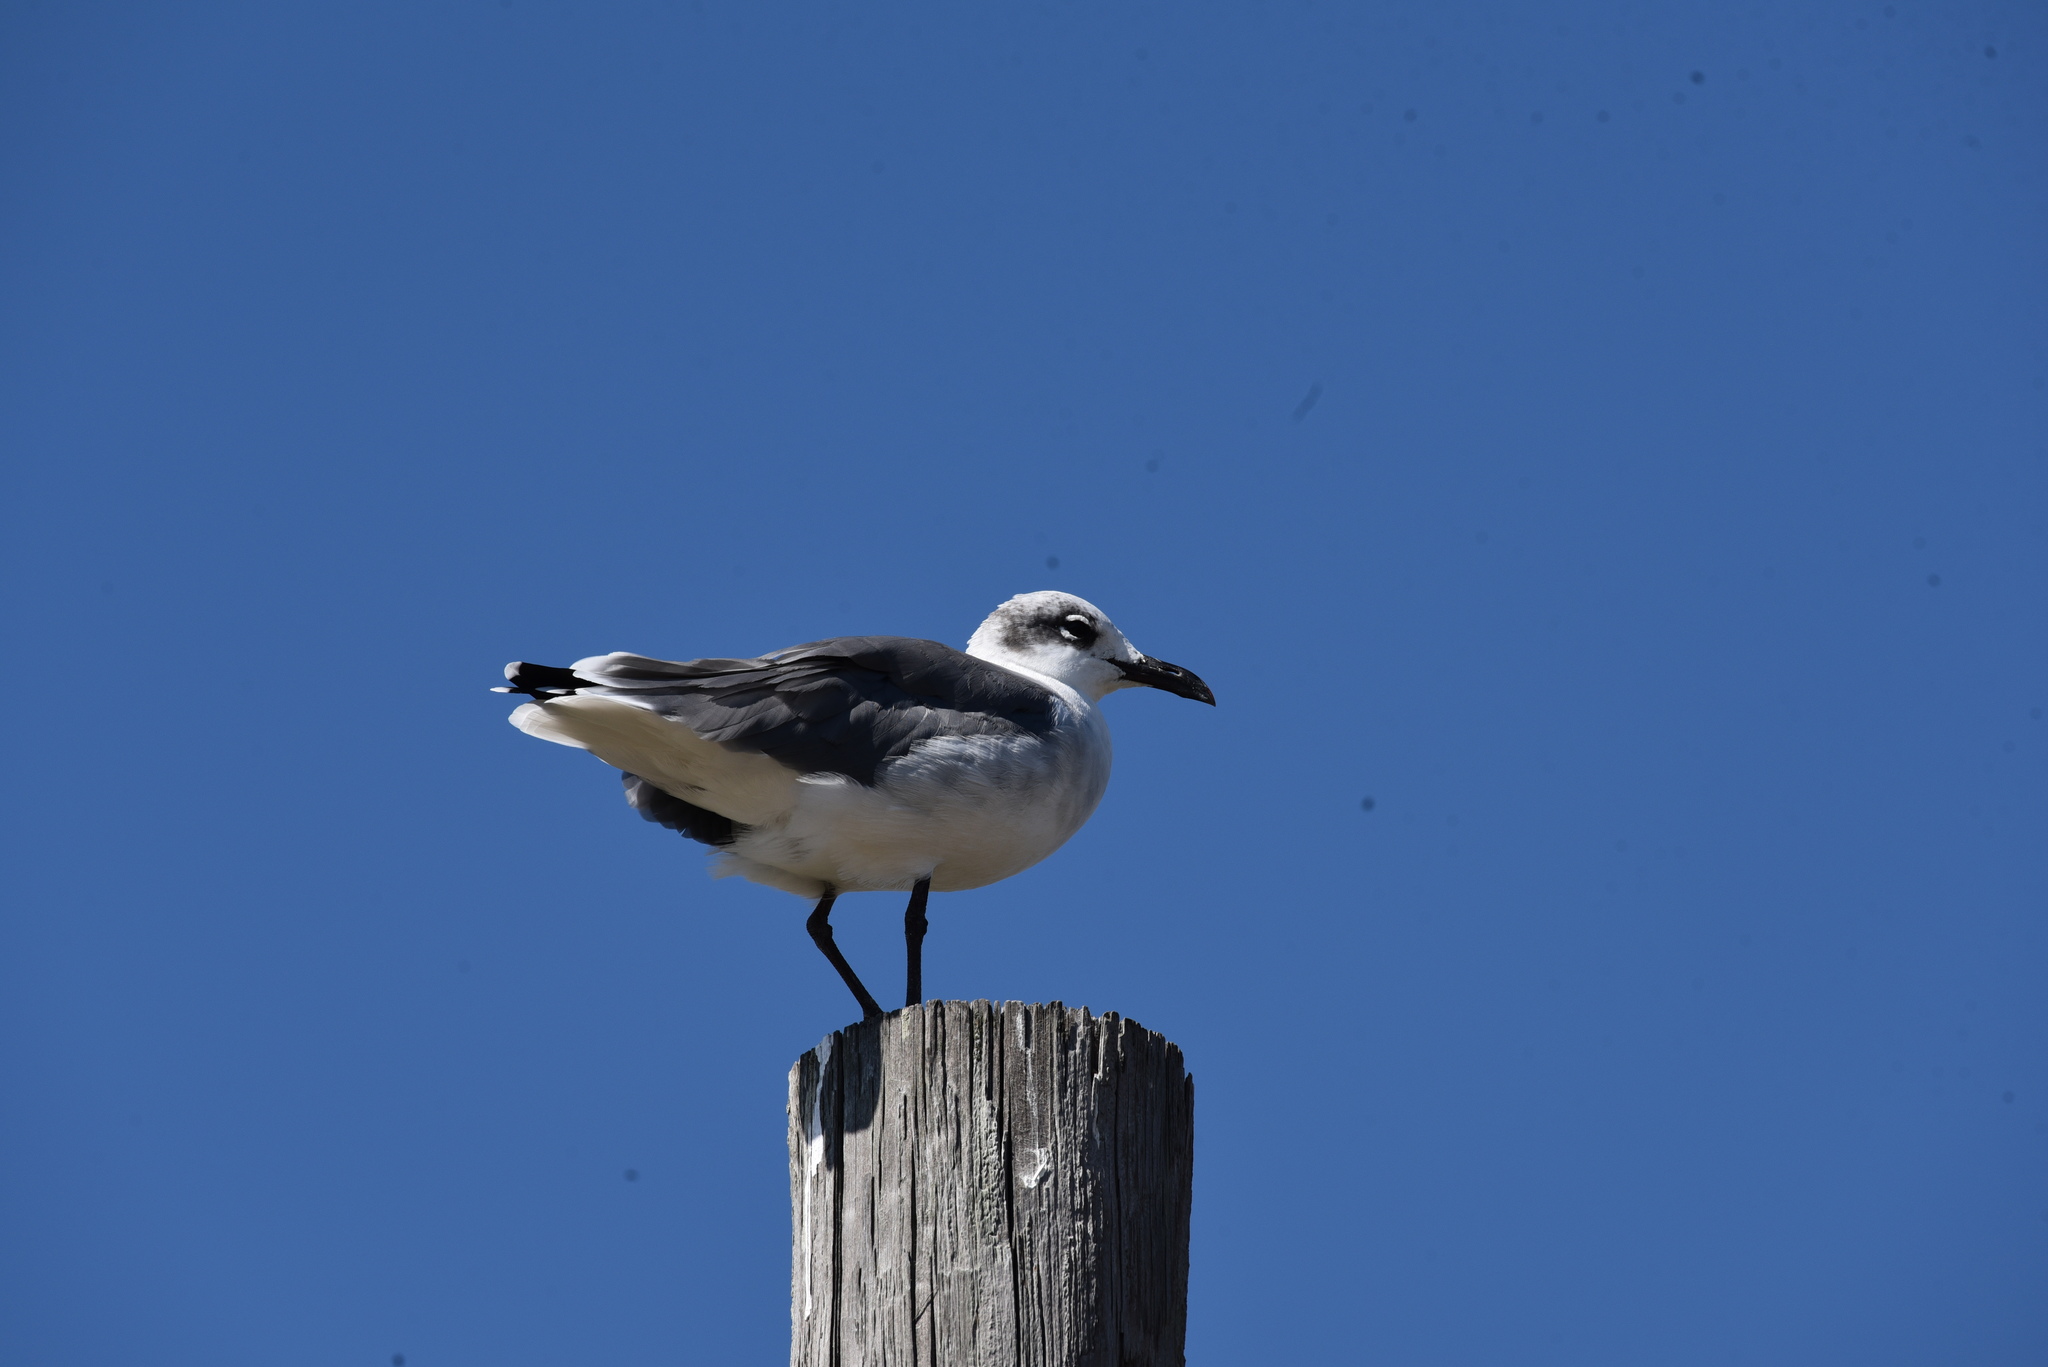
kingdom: Animalia
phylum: Chordata
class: Aves
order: Charadriiformes
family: Laridae
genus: Leucophaeus
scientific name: Leucophaeus atricilla
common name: Laughing gull
